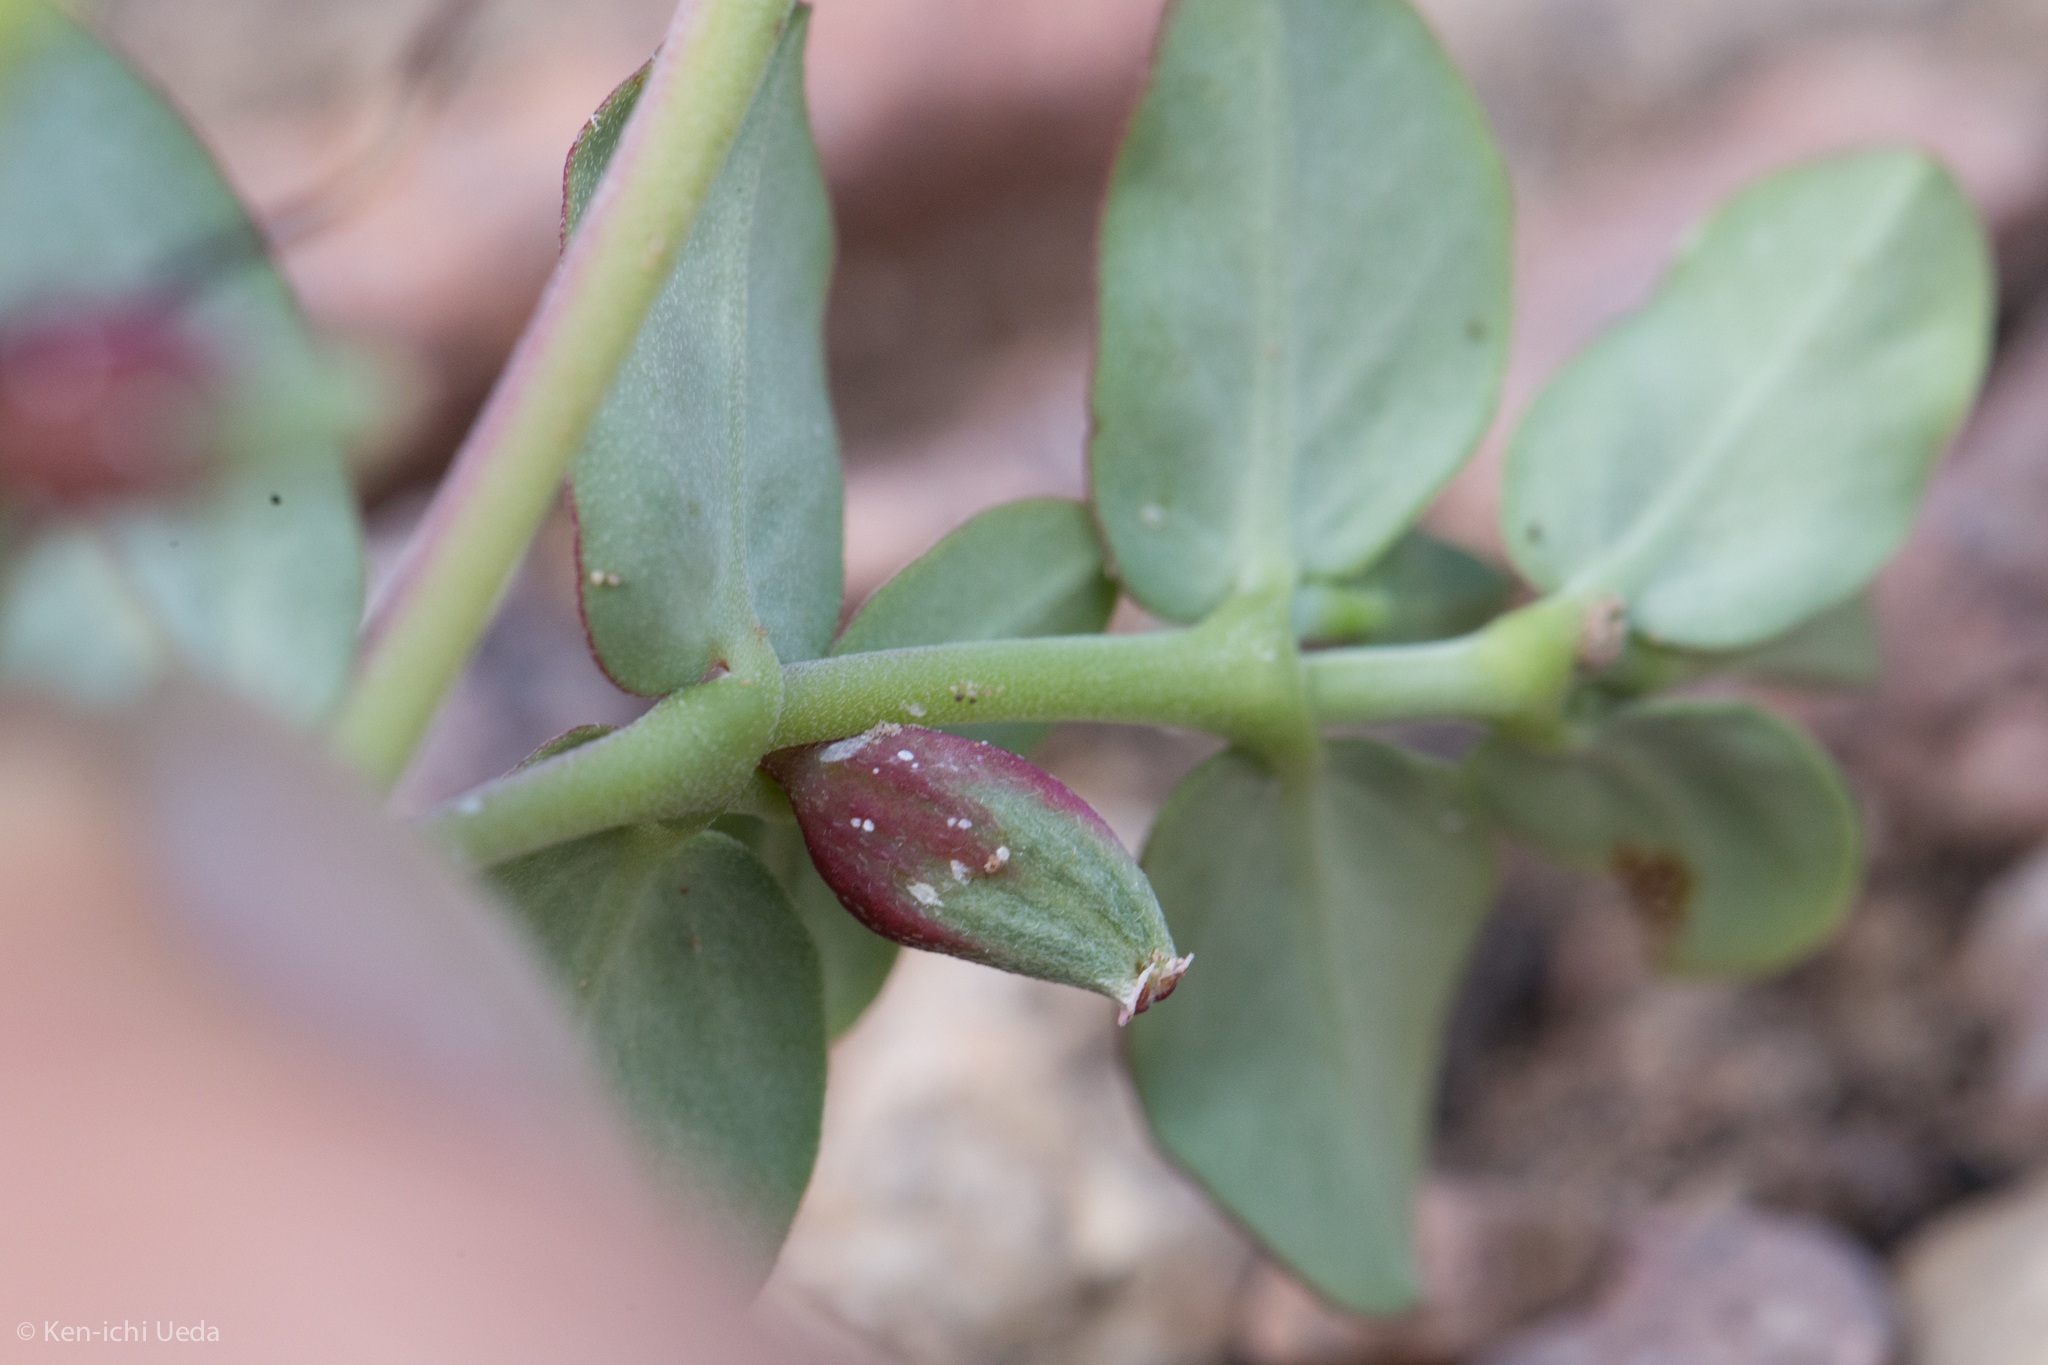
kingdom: Plantae
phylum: Tracheophyta
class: Magnoliopsida
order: Malpighiales
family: Euphorbiaceae
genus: Euphorbia
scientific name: Euphorbia pediculifera
